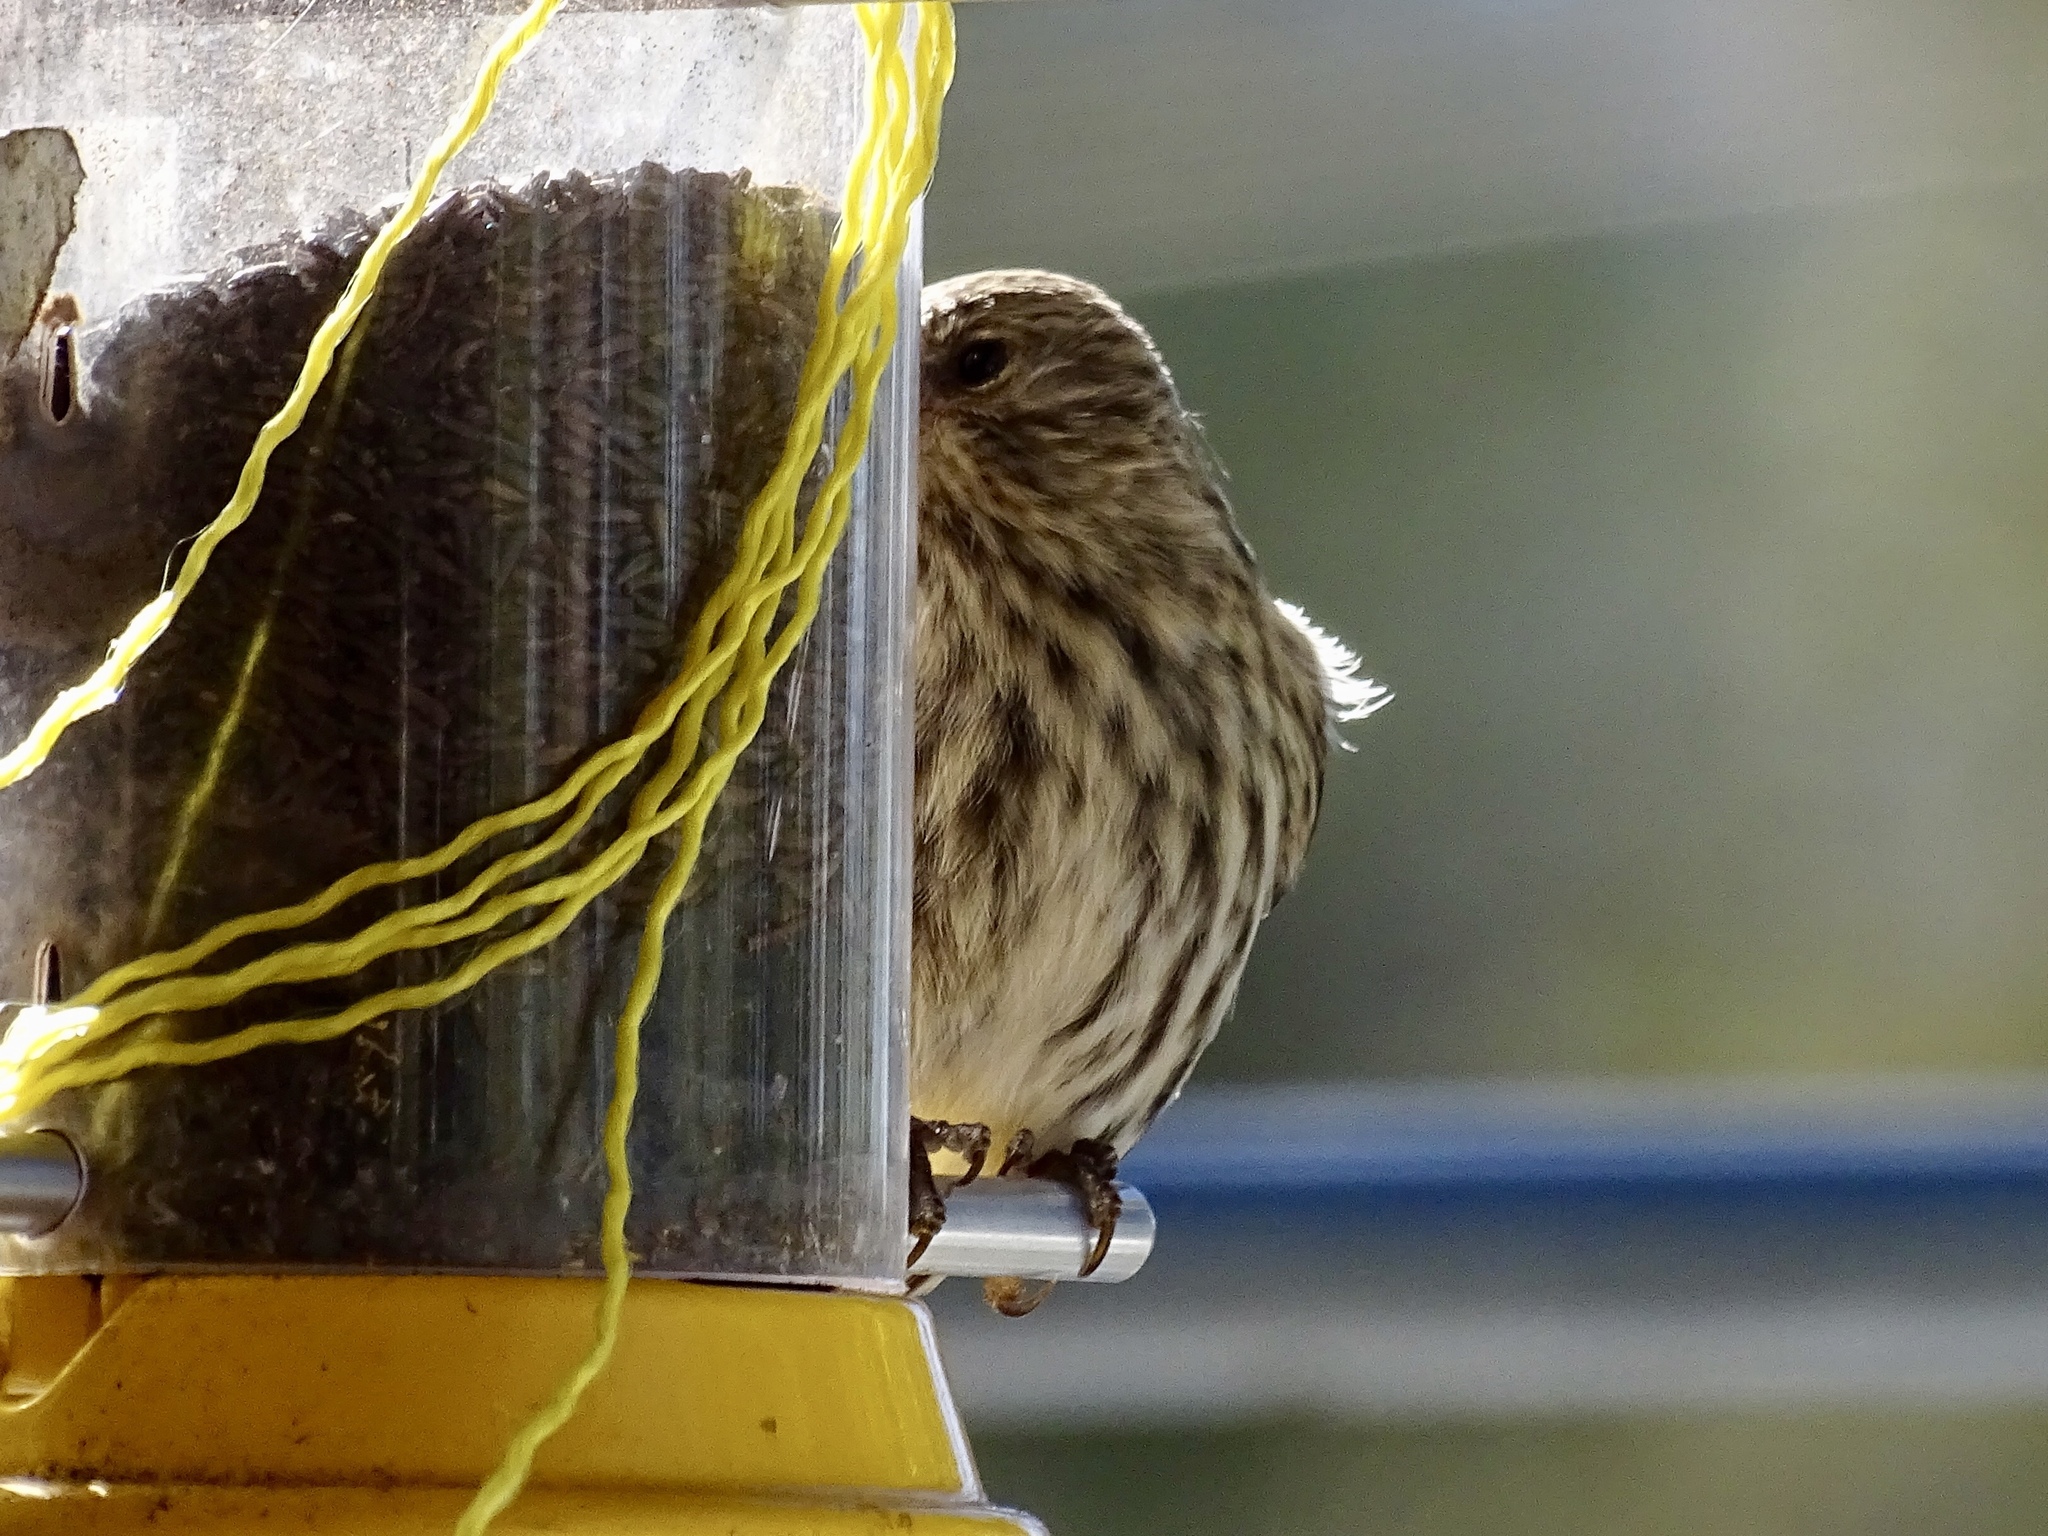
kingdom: Animalia
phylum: Chordata
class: Aves
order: Passeriformes
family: Fringillidae
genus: Spinus
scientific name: Spinus pinus
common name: Pine siskin
